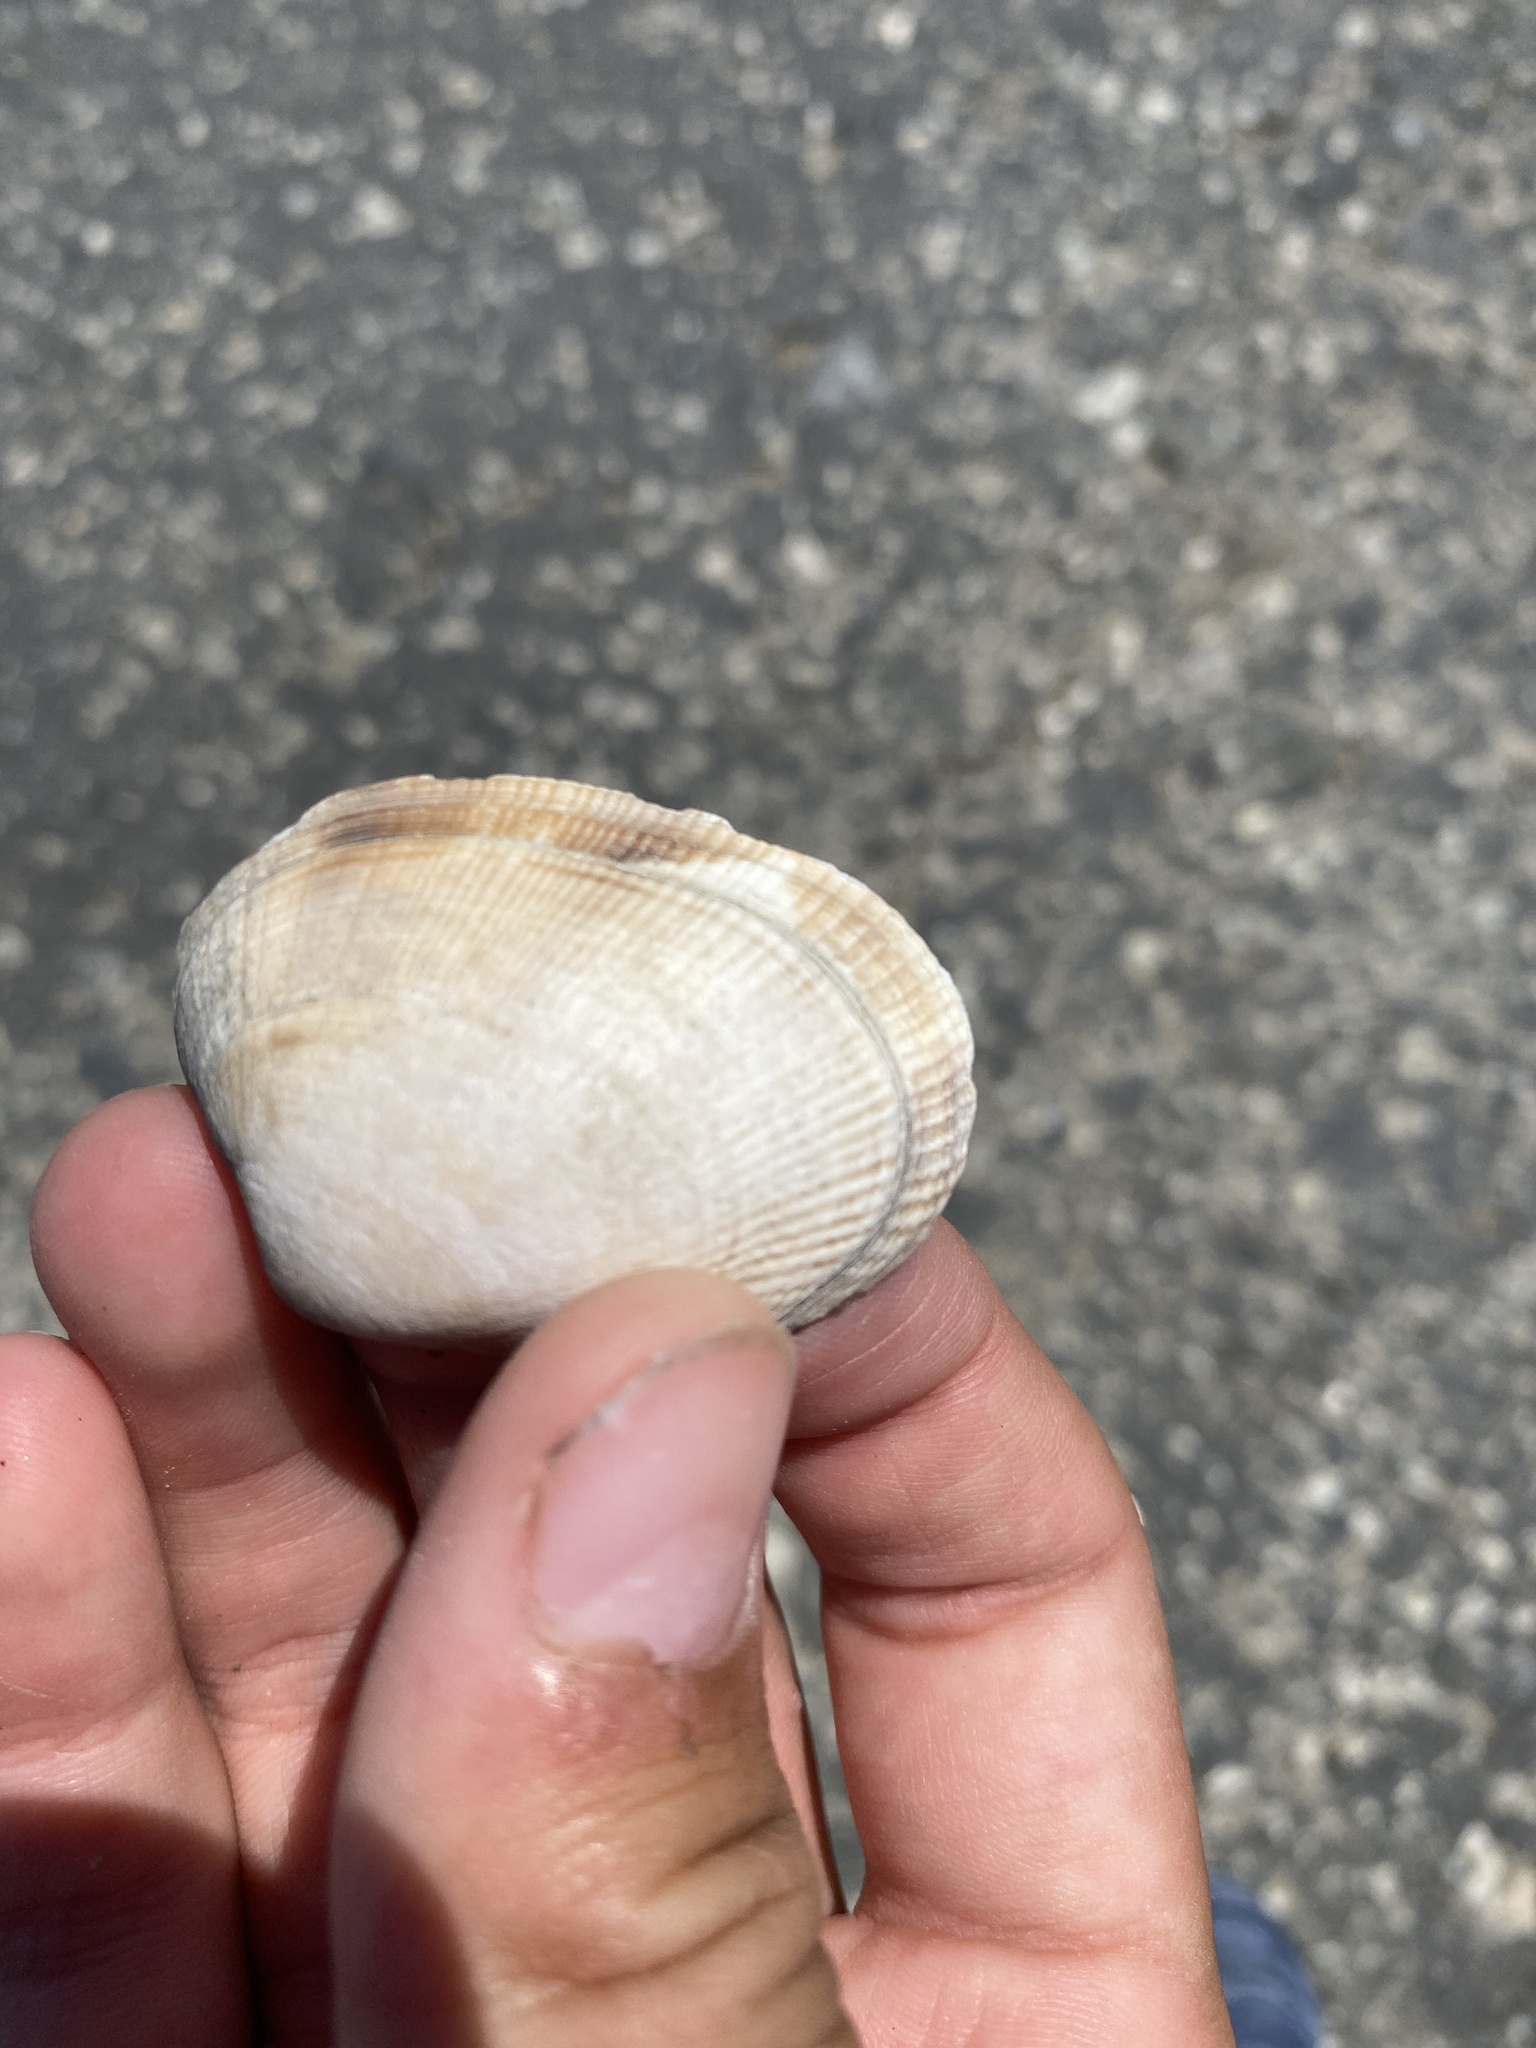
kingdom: Animalia
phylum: Mollusca
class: Bivalvia
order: Venerida
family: Veneridae
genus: Ruditapes
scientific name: Ruditapes philippinarum
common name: Manila clam
